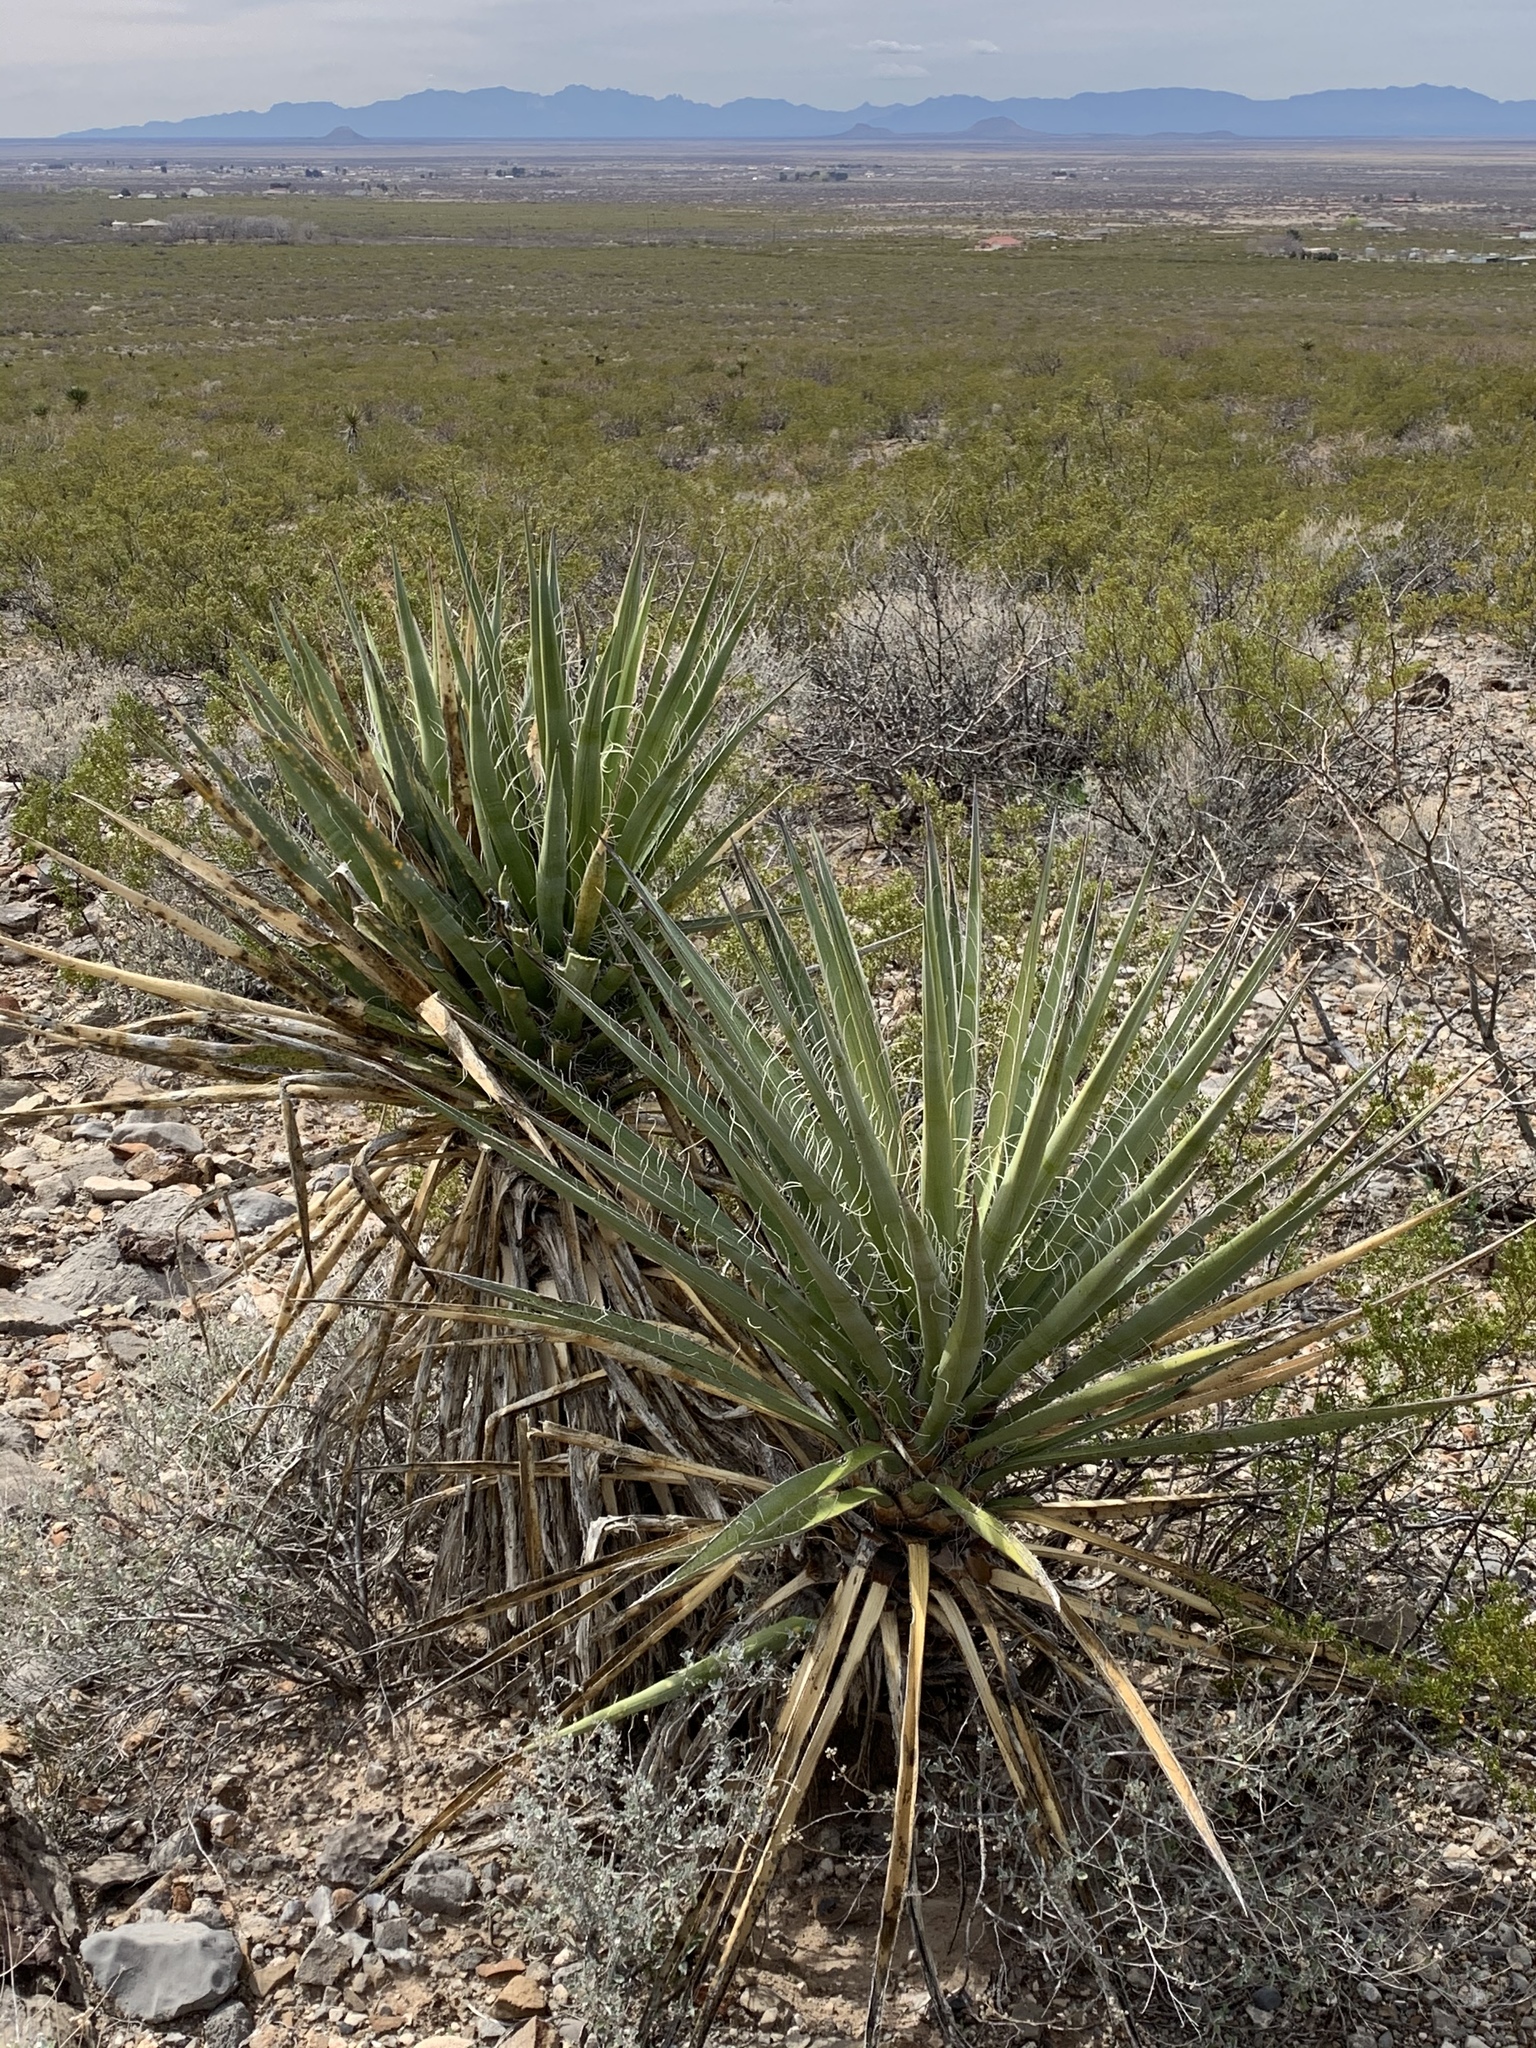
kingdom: Plantae
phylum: Tracheophyta
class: Liliopsida
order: Asparagales
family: Asparagaceae
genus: Yucca
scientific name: Yucca treculiana
